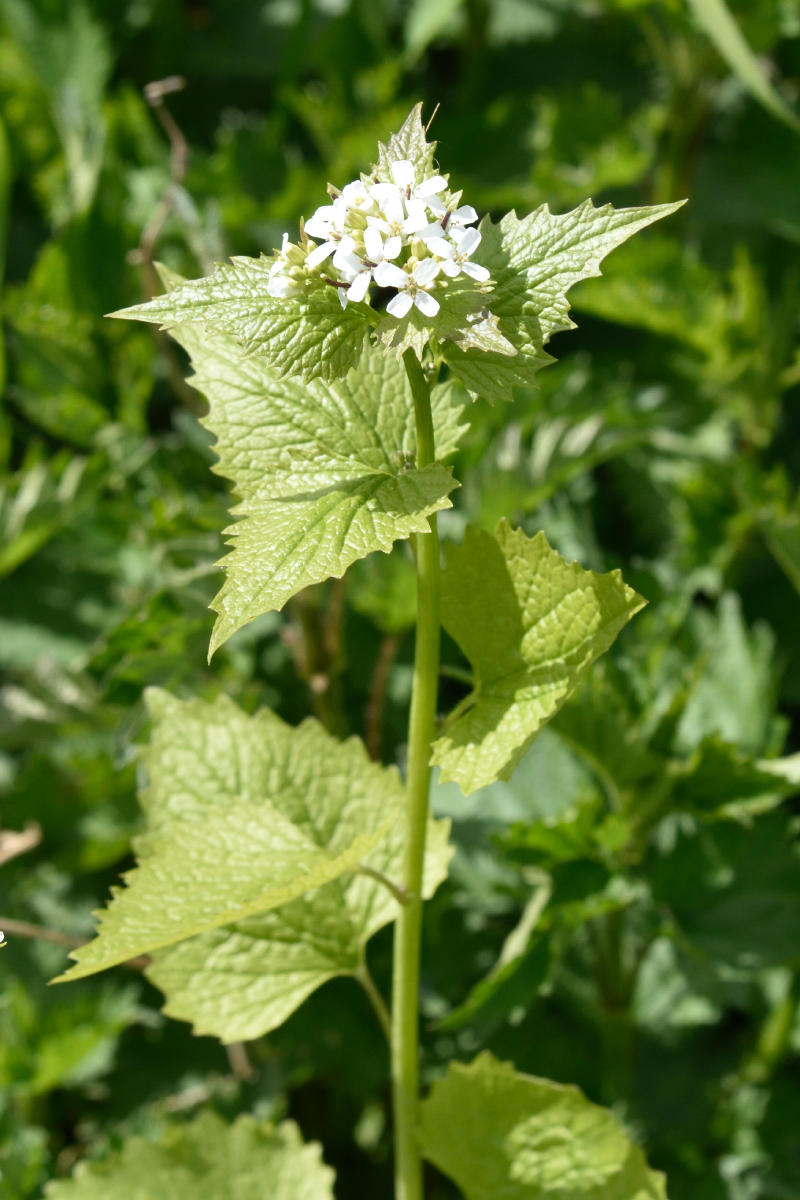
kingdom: Plantae
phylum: Tracheophyta
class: Magnoliopsida
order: Brassicales
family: Brassicaceae
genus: Alliaria
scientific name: Alliaria petiolata
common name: Garlic mustard
